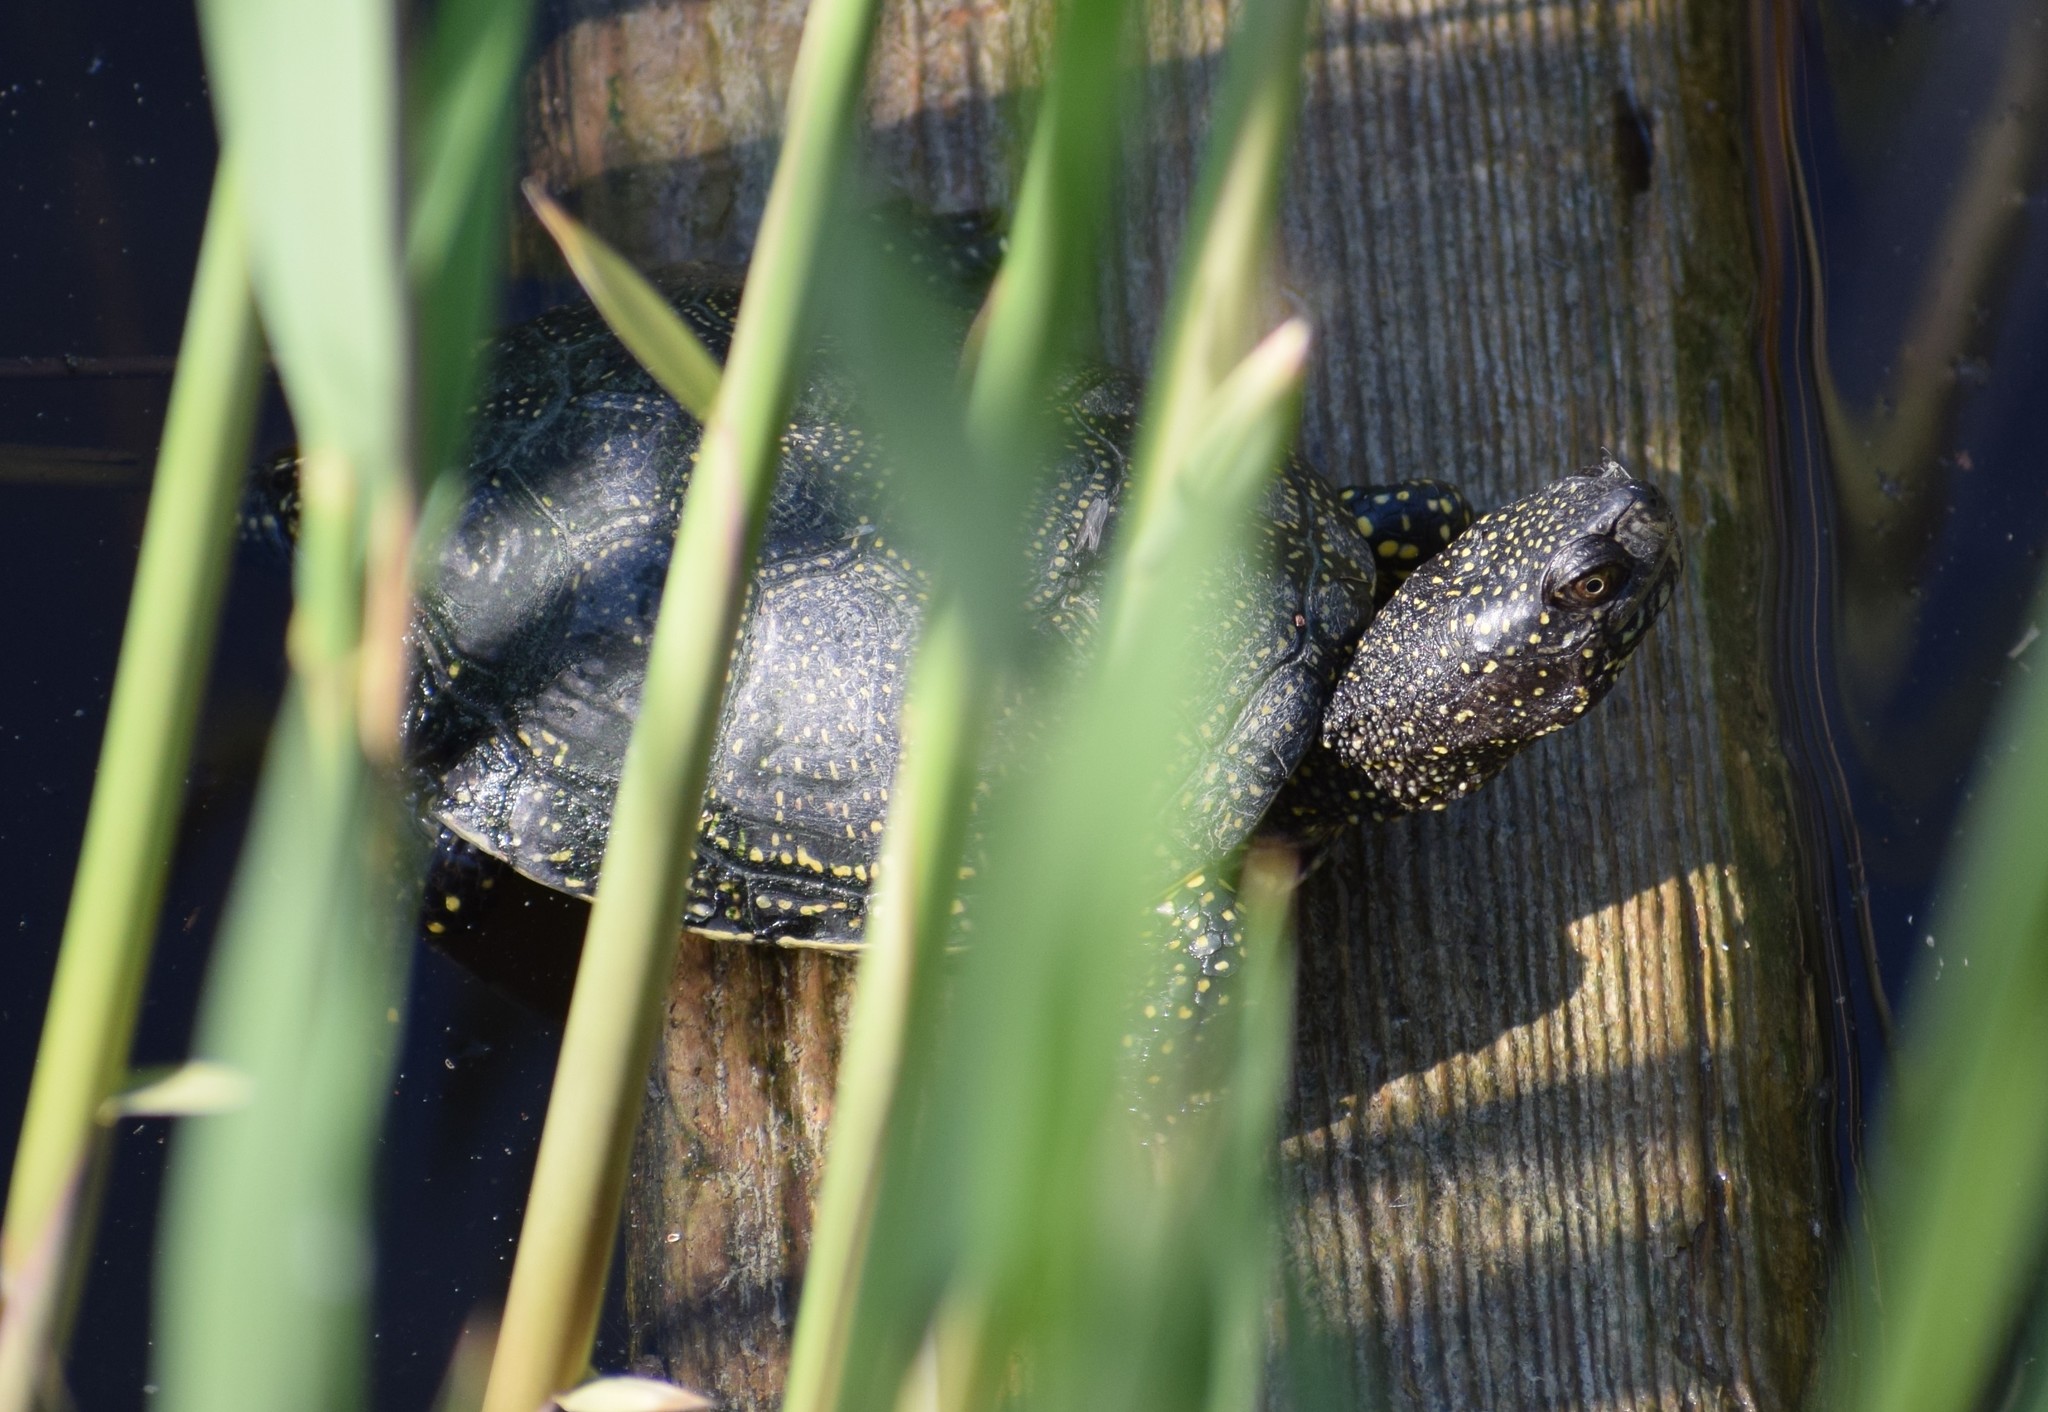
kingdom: Animalia
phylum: Chordata
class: Testudines
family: Emydidae
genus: Emys
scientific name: Emys orbicularis
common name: European pond turtle
